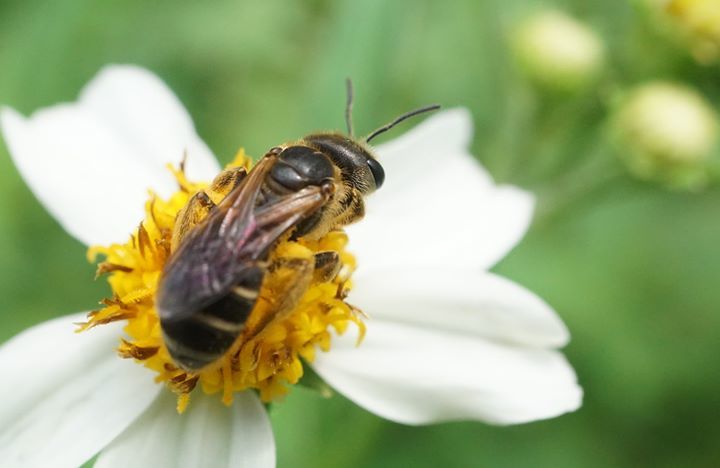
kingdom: Animalia
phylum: Arthropoda
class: Insecta
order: Hymenoptera
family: Halictidae
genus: Halictus
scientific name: Halictus poeyi
